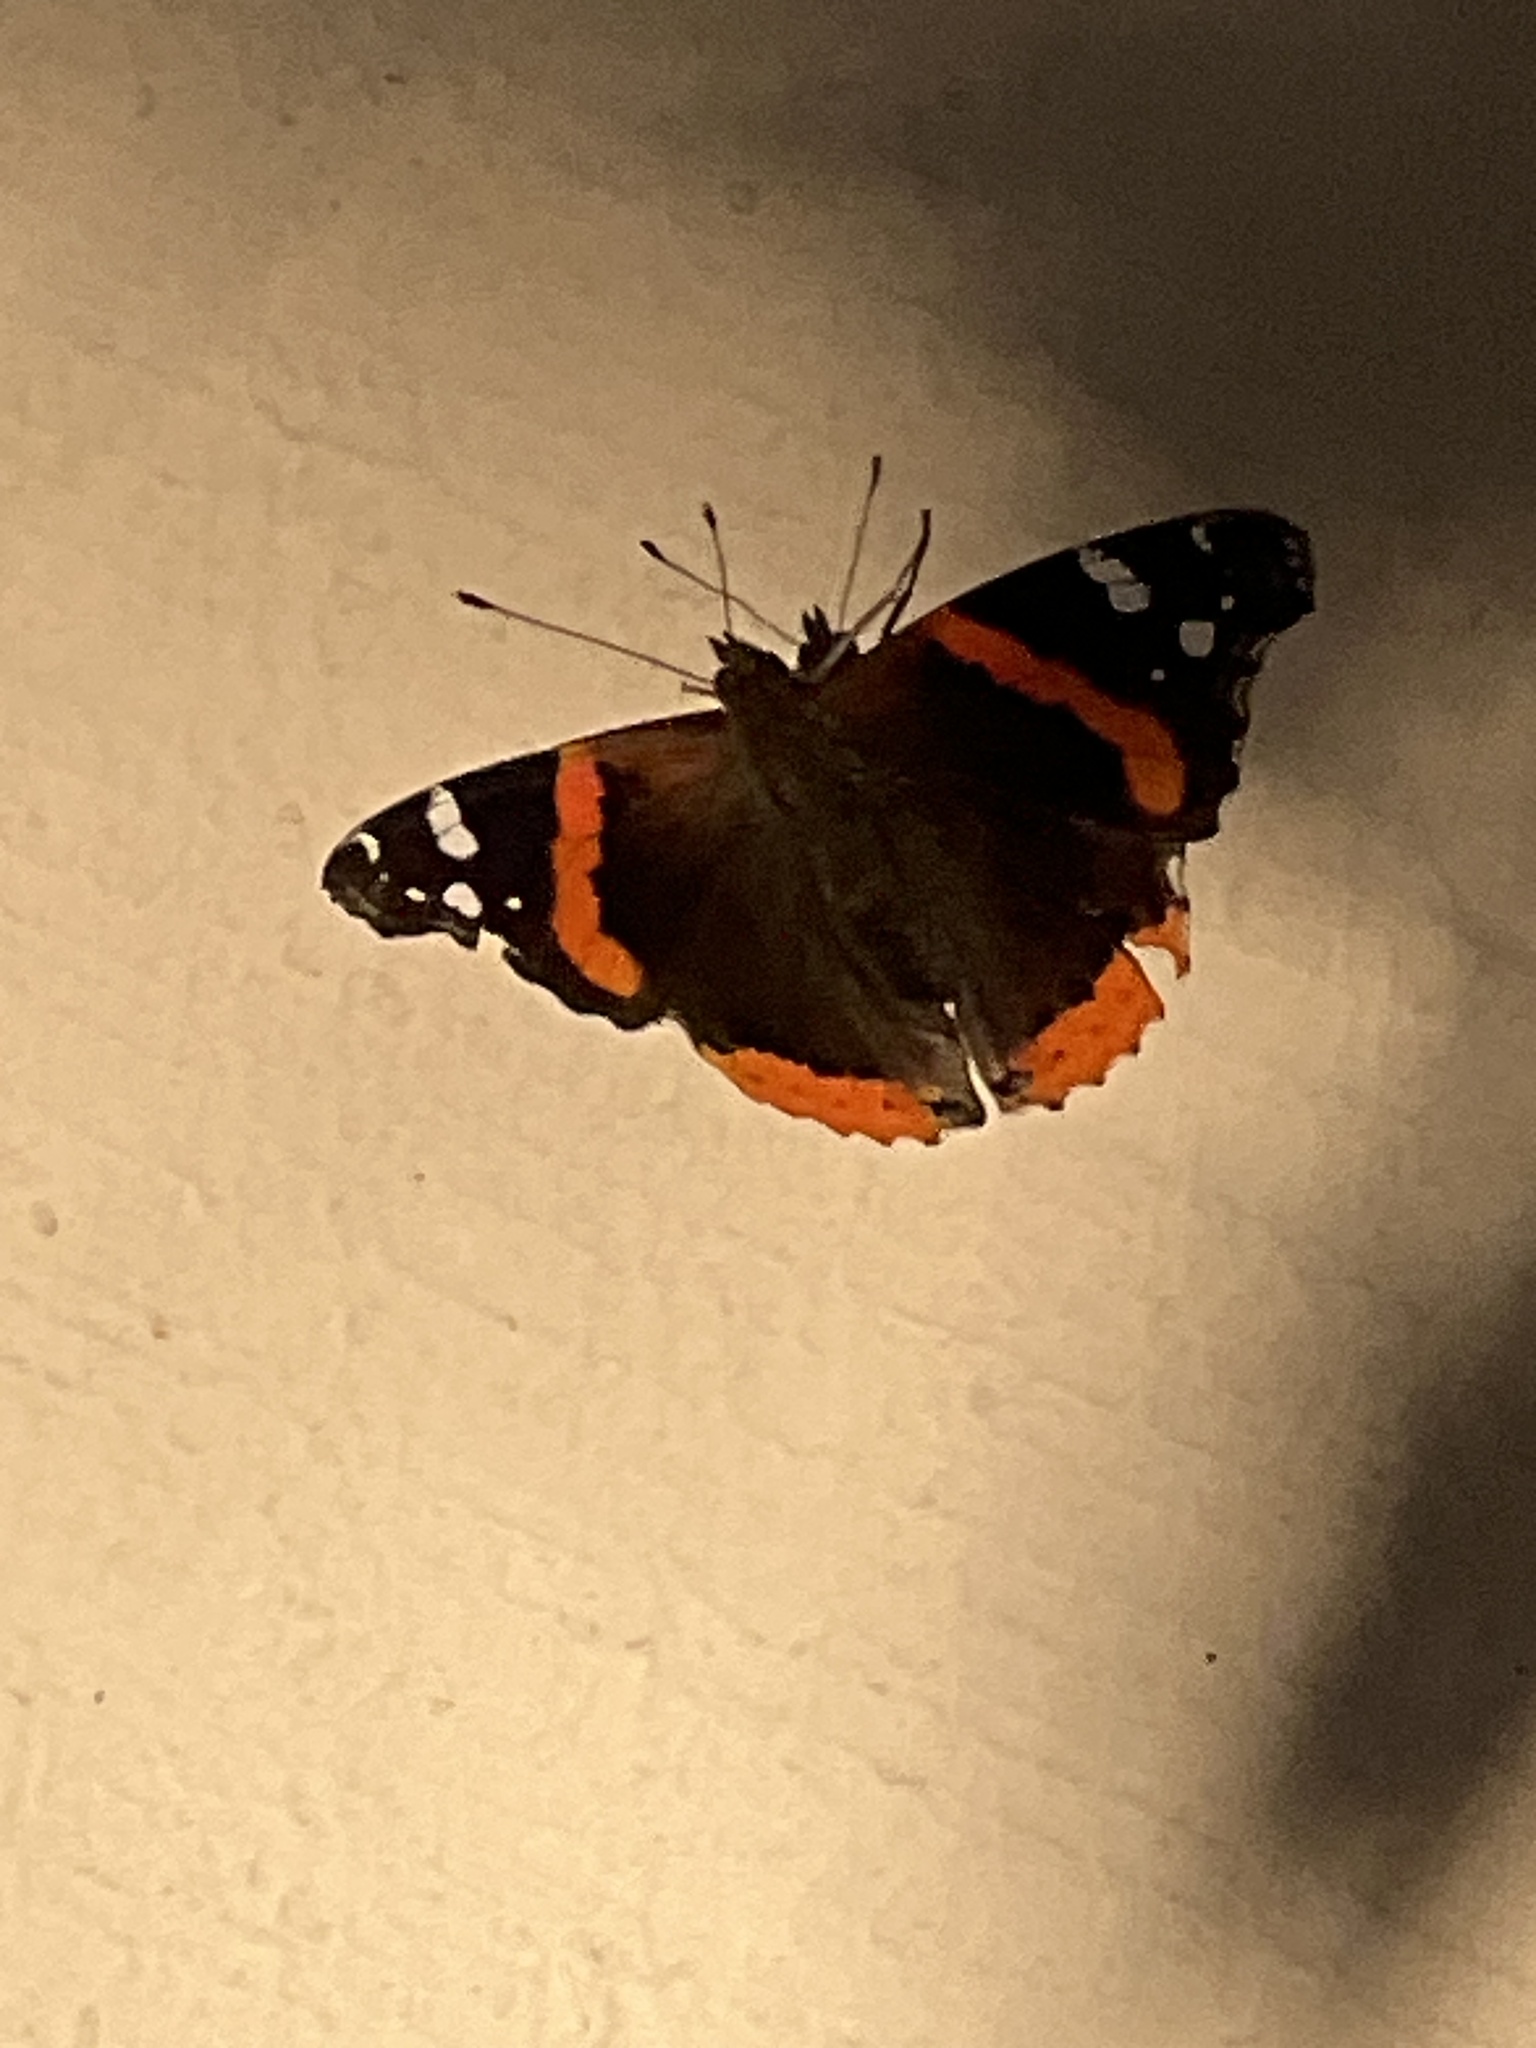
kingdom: Animalia
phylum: Arthropoda
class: Insecta
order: Lepidoptera
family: Nymphalidae
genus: Vanessa
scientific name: Vanessa atalanta
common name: Red admiral
